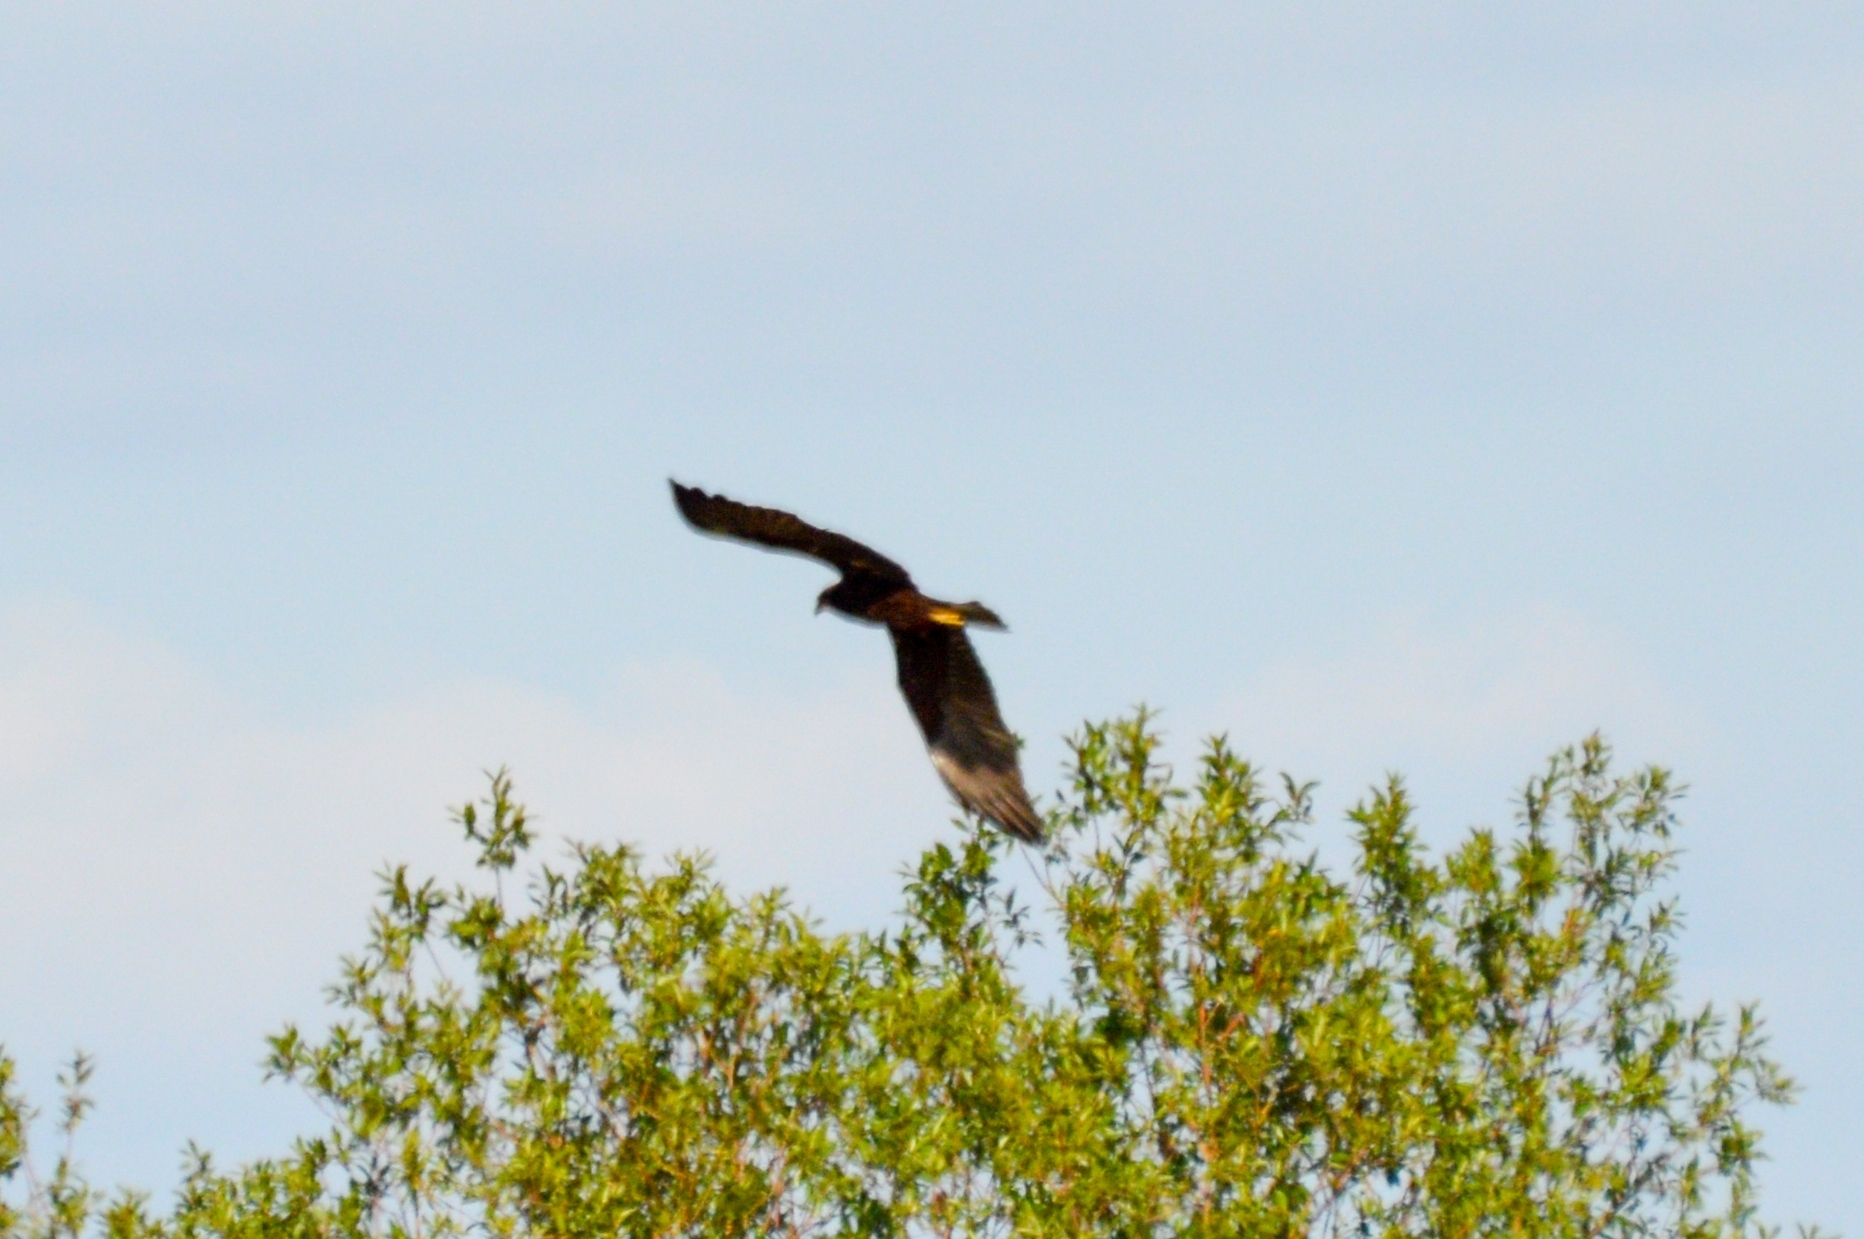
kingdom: Animalia
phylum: Chordata
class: Aves
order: Accipitriformes
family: Accipitridae
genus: Circus
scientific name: Circus aeruginosus
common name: Western marsh harrier
